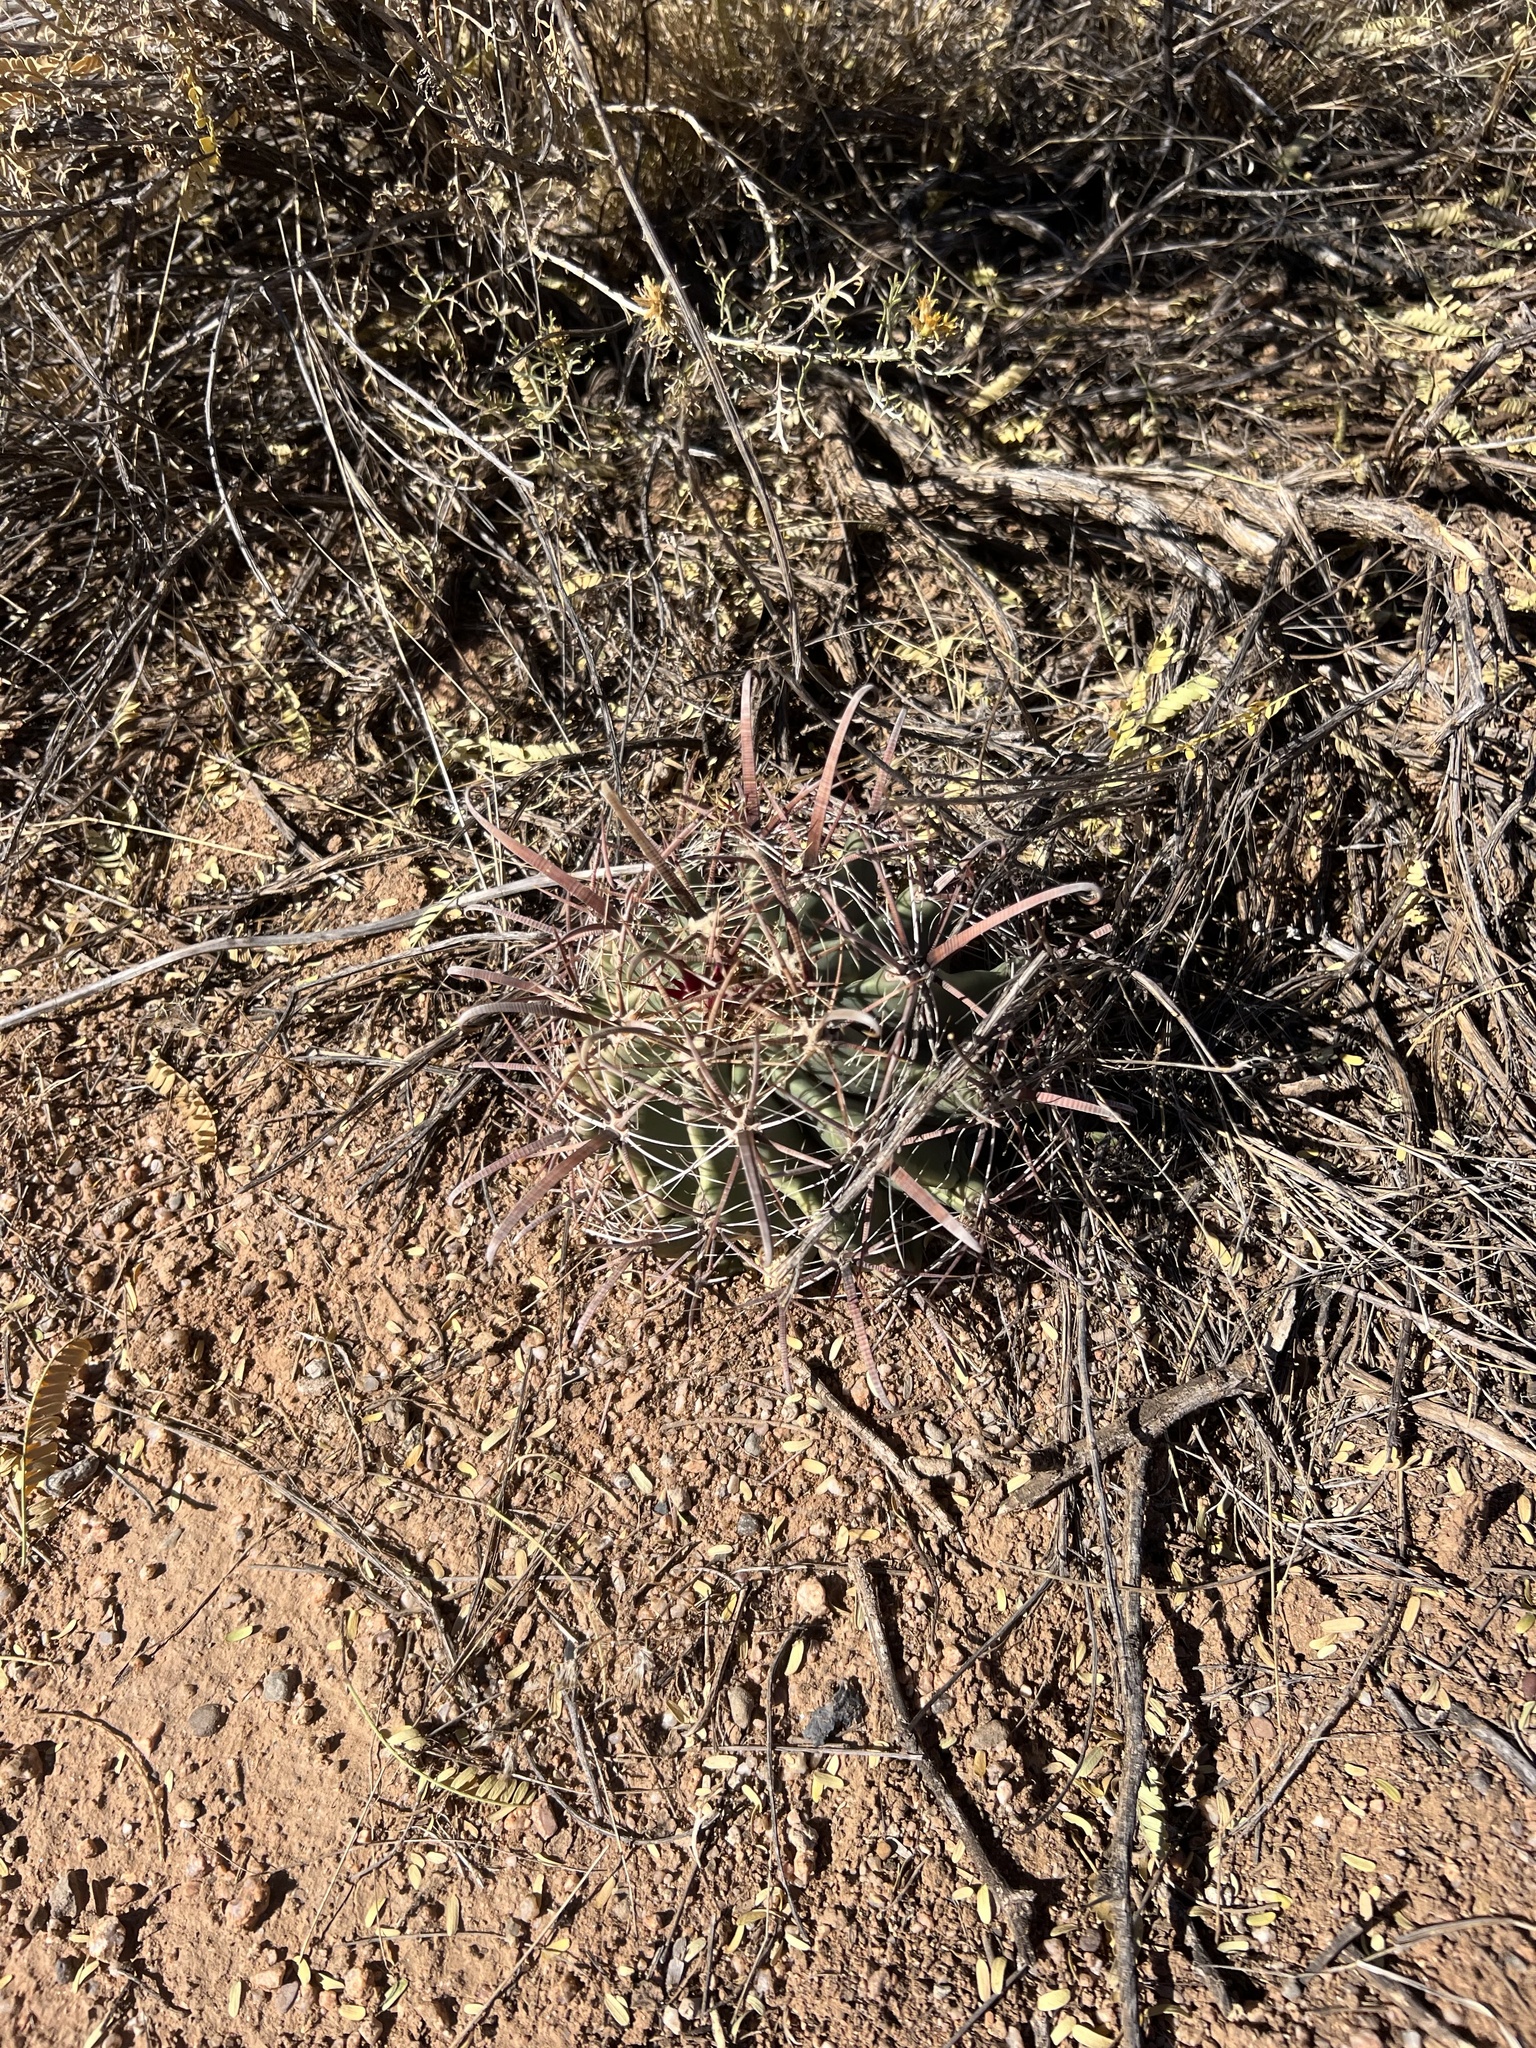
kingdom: Plantae
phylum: Tracheophyta
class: Magnoliopsida
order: Caryophyllales
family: Cactaceae
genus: Ferocactus
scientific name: Ferocactus wislizeni
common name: Candy barrel cactus
